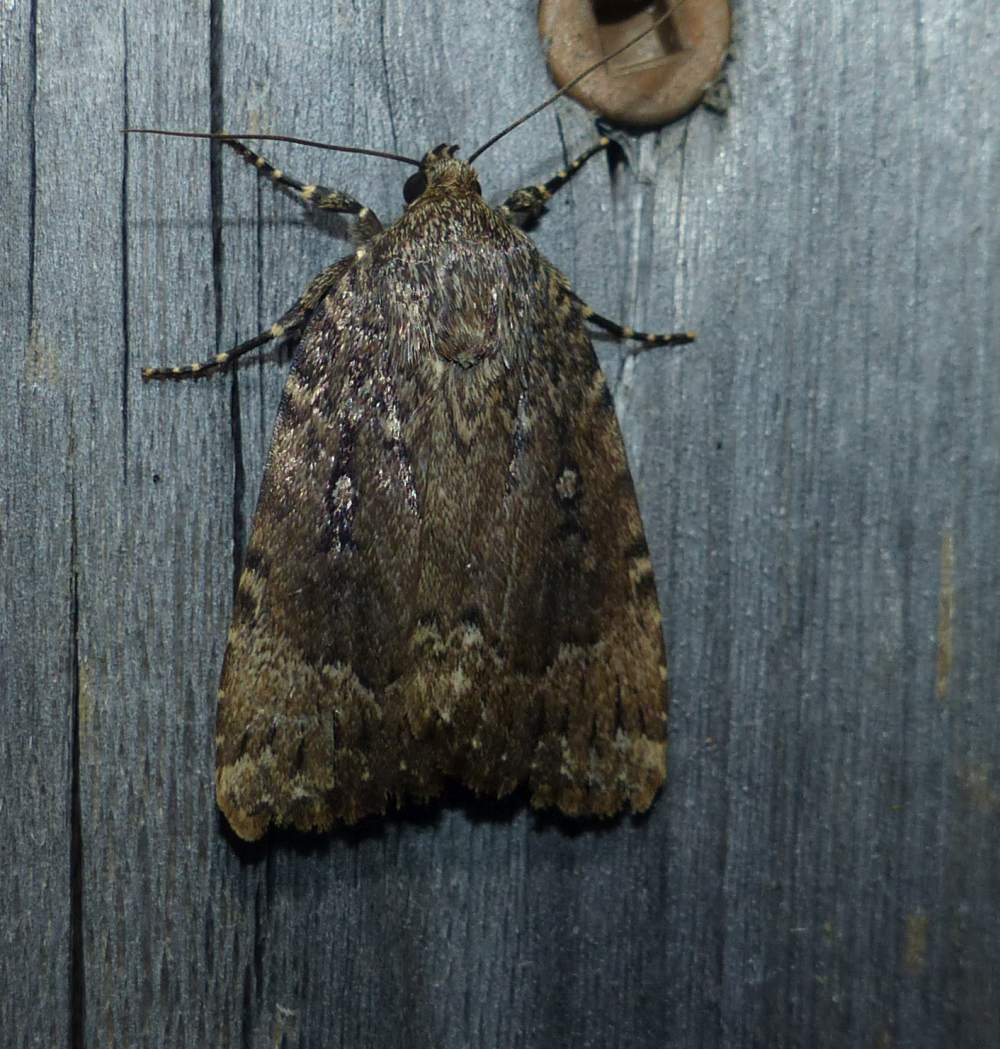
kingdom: Animalia
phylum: Arthropoda
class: Insecta
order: Lepidoptera
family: Noctuidae
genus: Amphipyra
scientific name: Amphipyra pyramidoides
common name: American copper underwing
